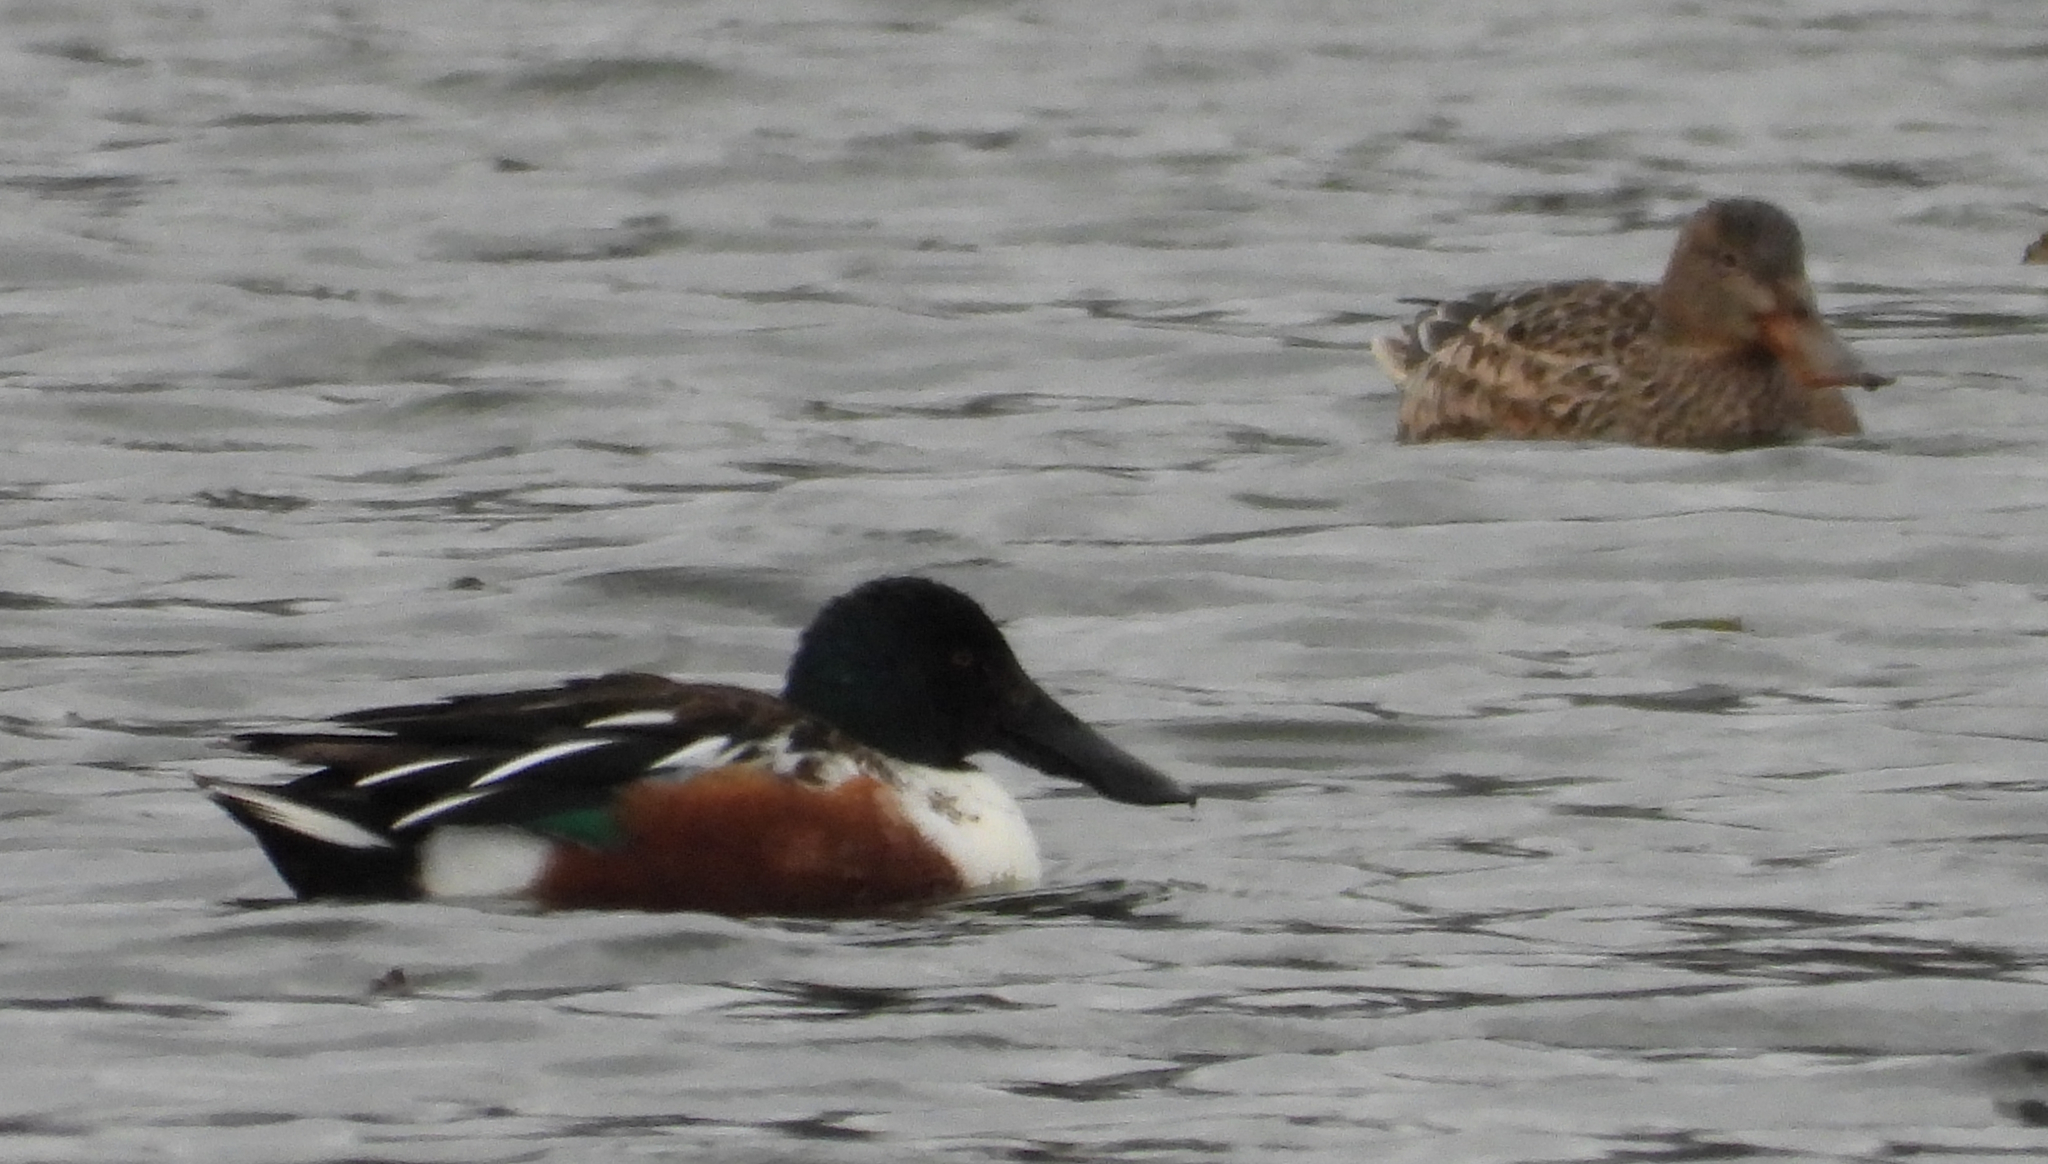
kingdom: Animalia
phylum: Chordata
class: Aves
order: Anseriformes
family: Anatidae
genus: Spatula
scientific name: Spatula clypeata
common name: Northern shoveler
